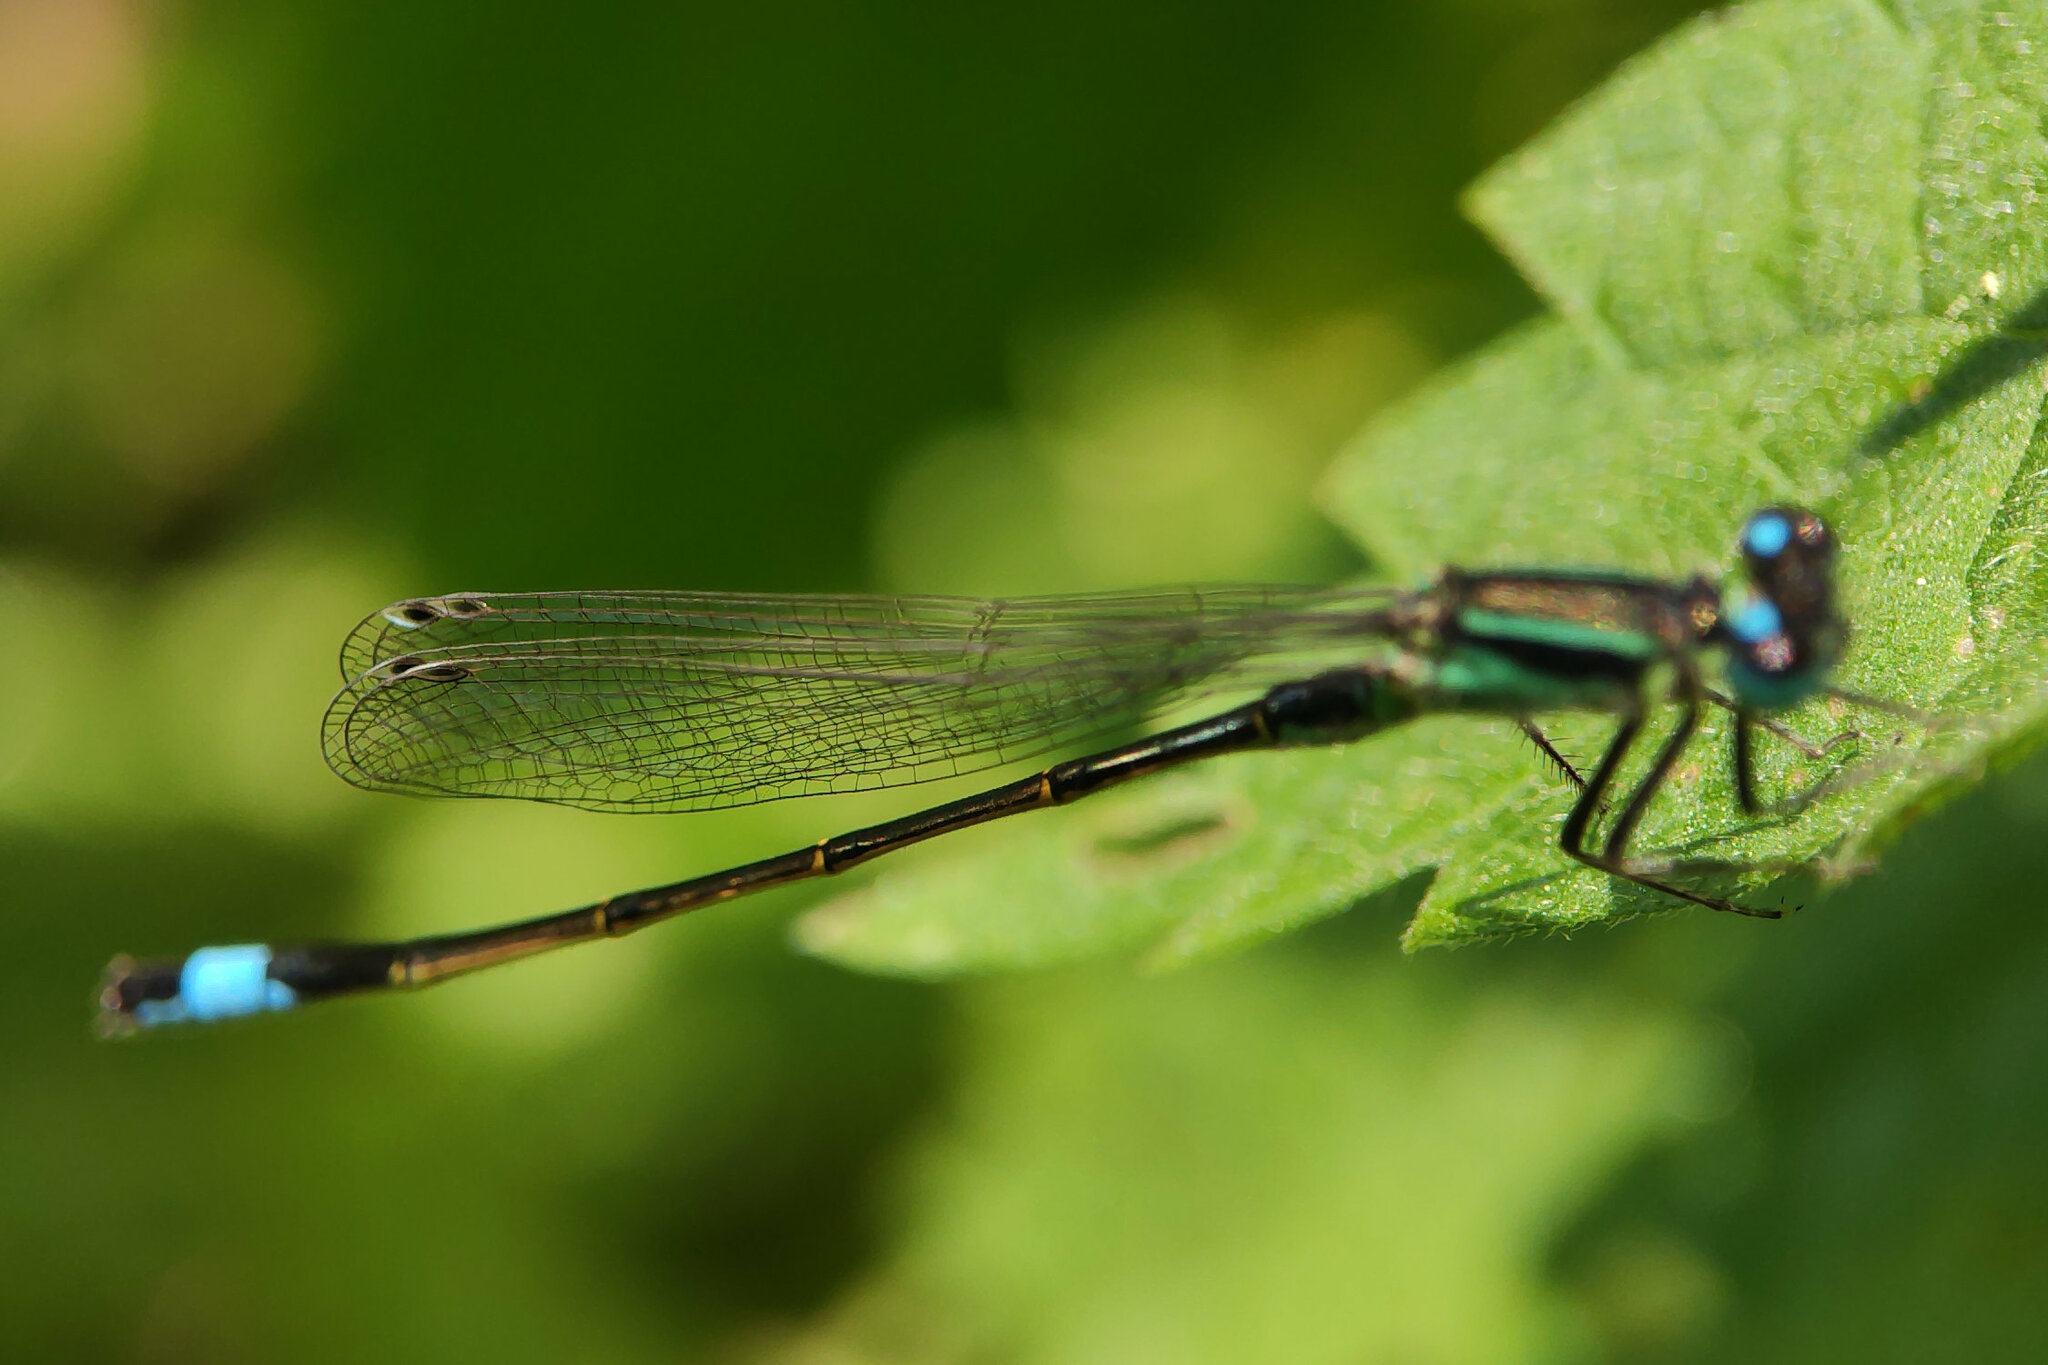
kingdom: Animalia
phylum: Arthropoda
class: Insecta
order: Odonata
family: Coenagrionidae
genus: Ischnura
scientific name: Ischnura elegans
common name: Blue-tailed damselfly
